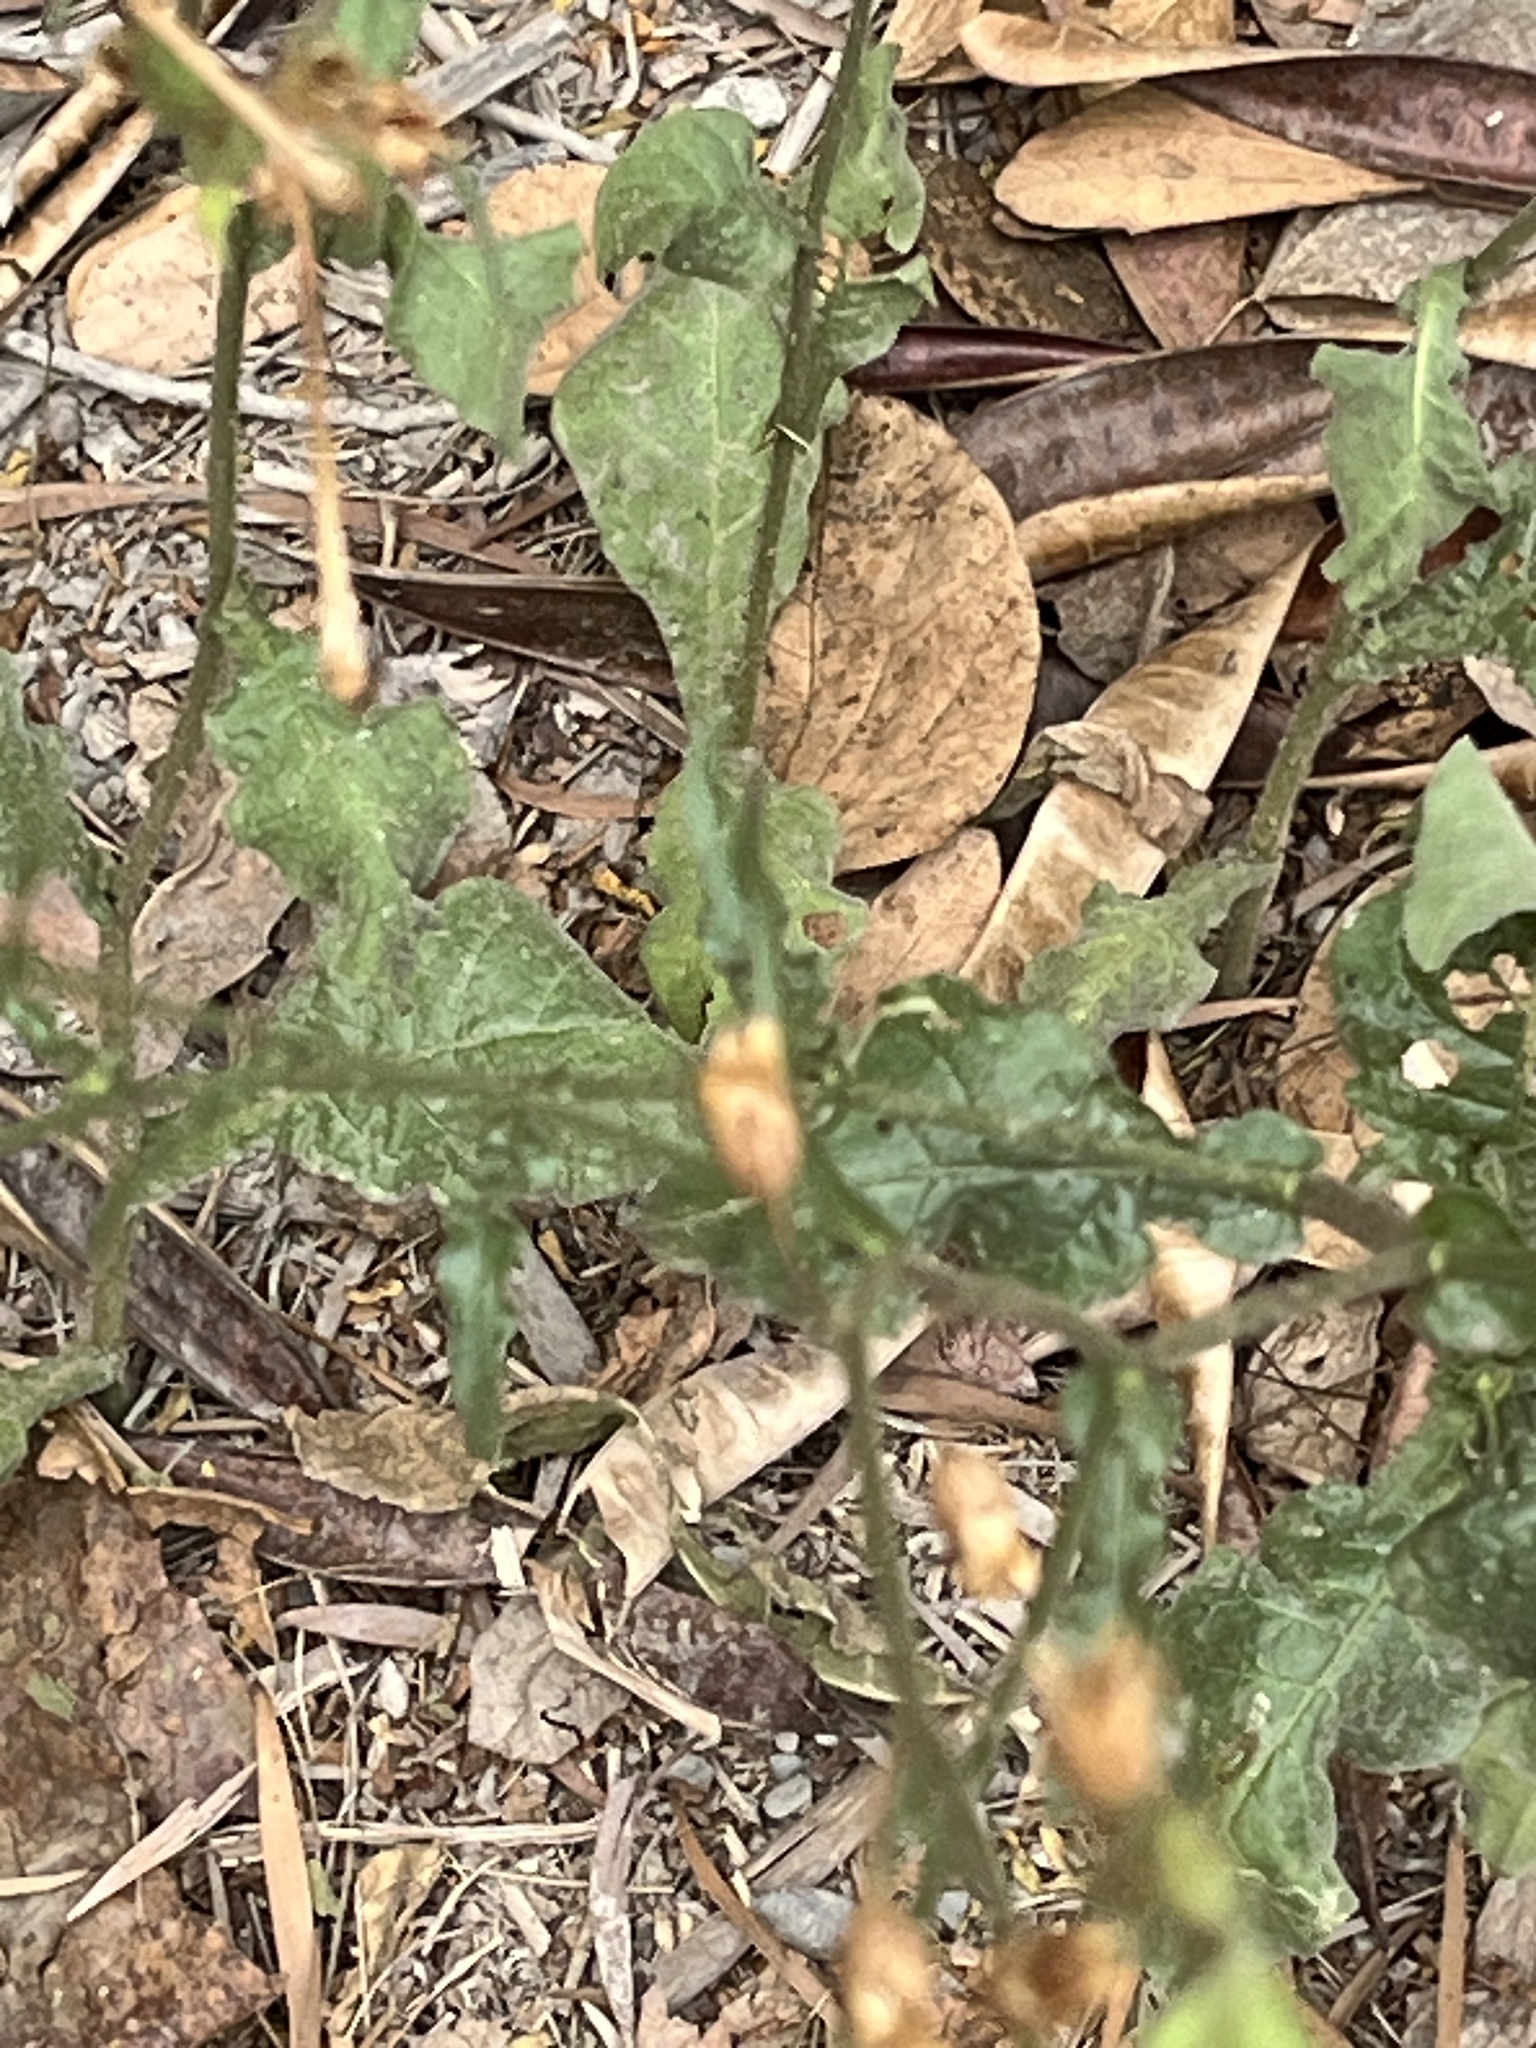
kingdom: Plantae
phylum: Tracheophyta
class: Magnoliopsida
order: Solanales
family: Solanaceae
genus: Nicotiana
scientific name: Nicotiana plumbaginifolia
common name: Tex-mex tobacco
